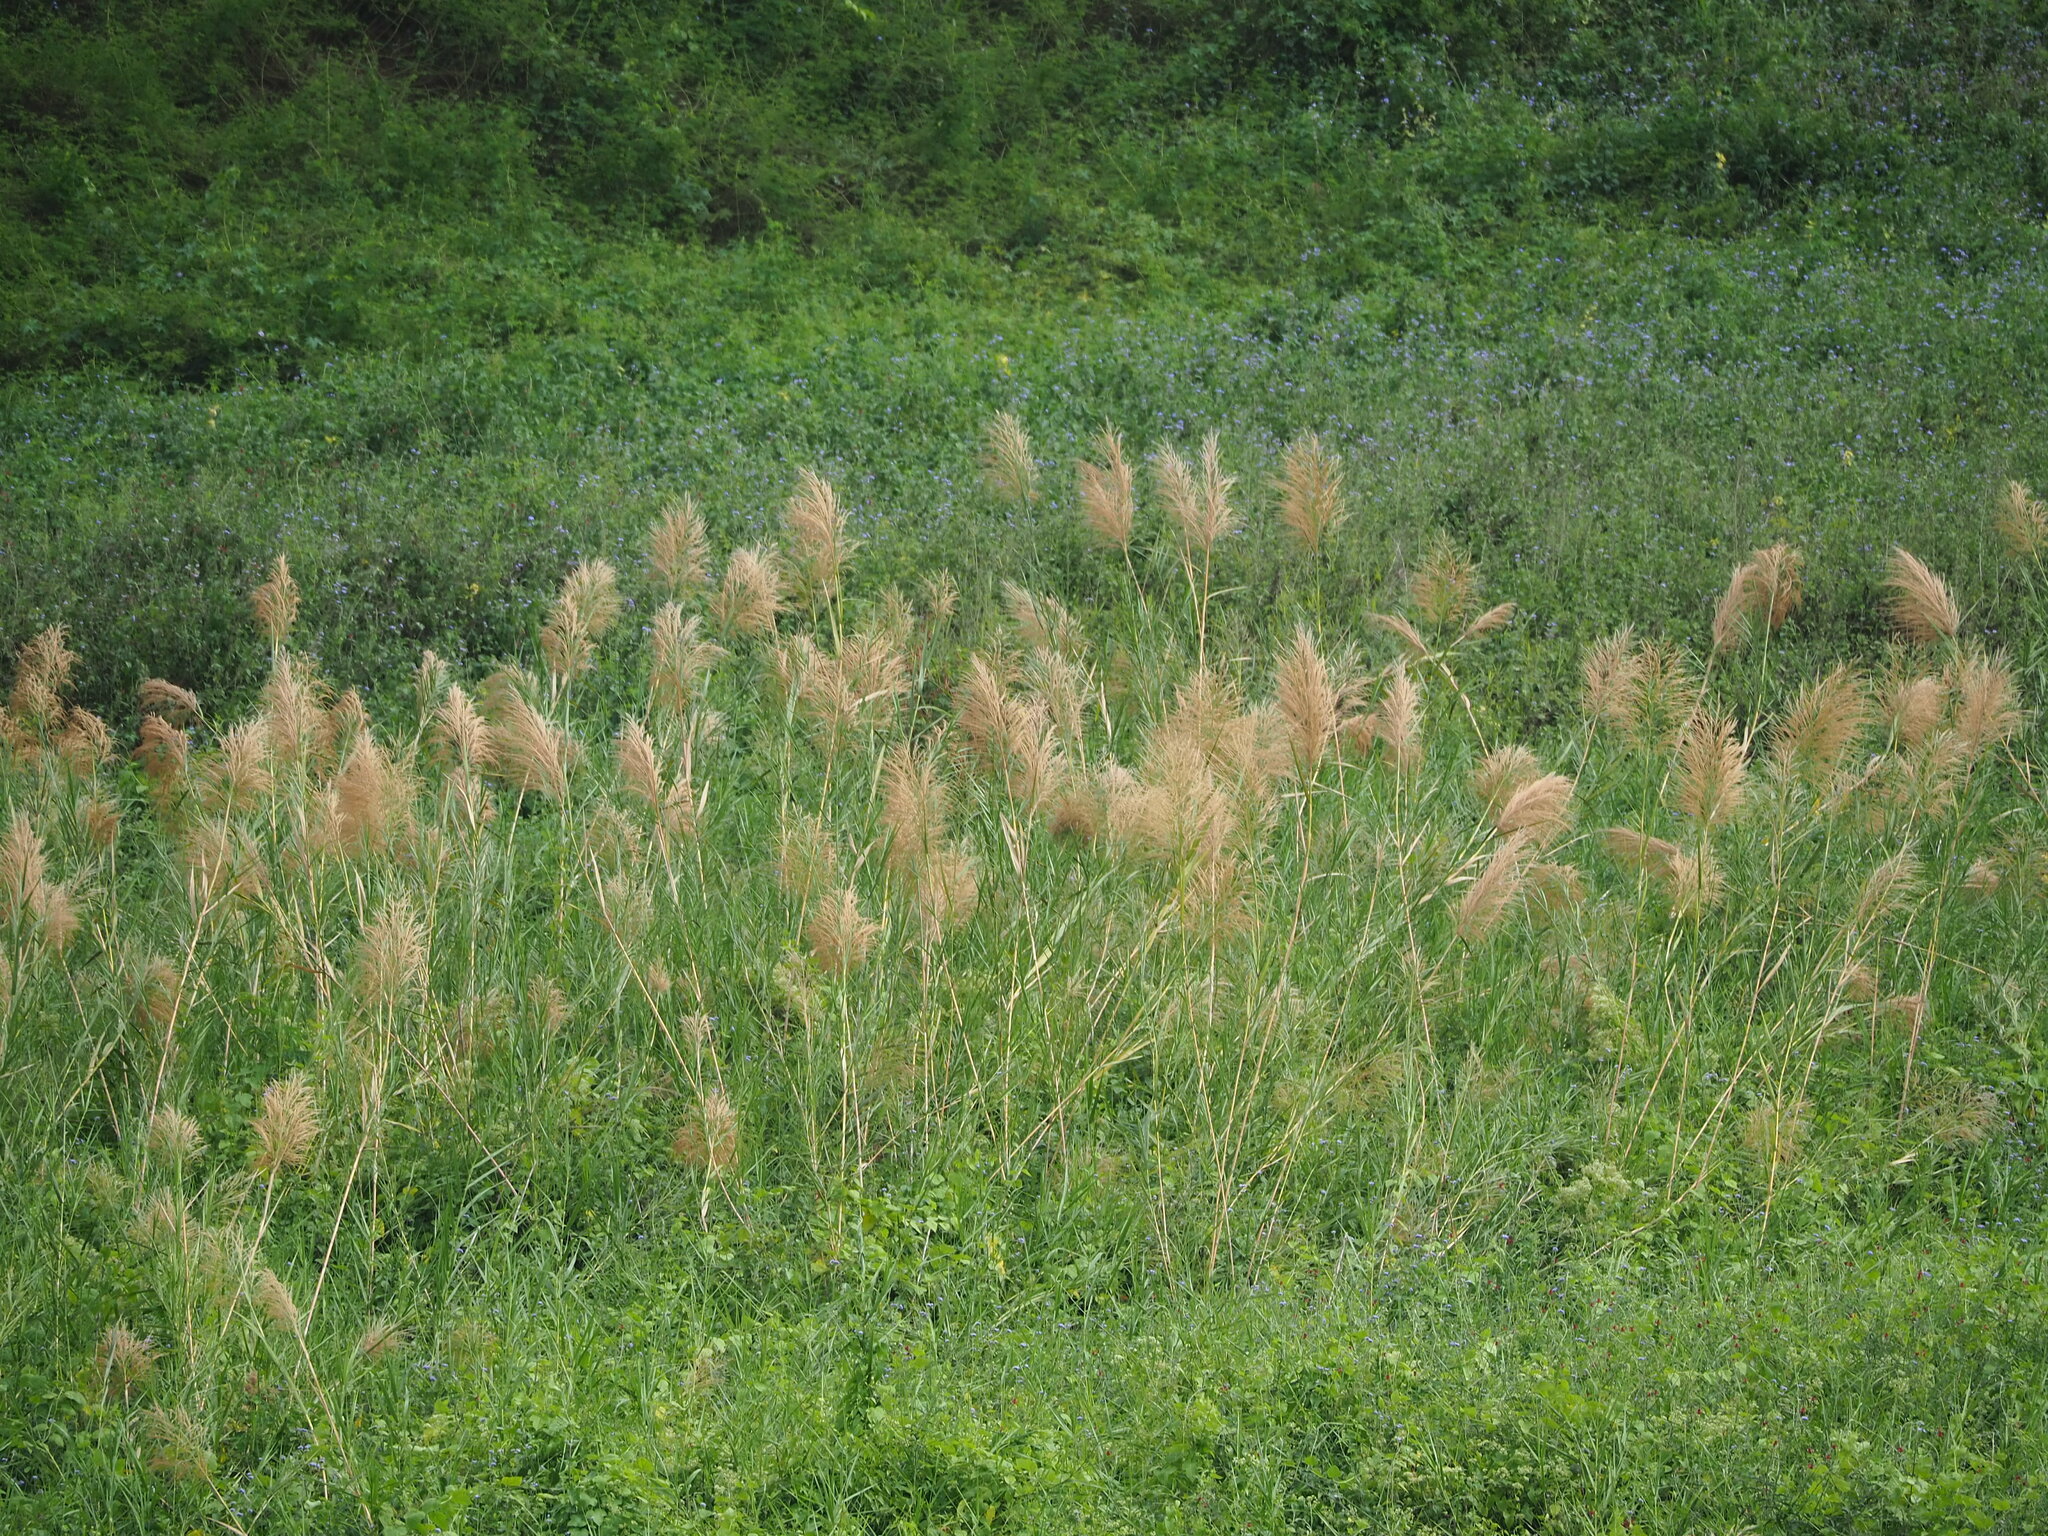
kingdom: Plantae
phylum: Tracheophyta
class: Liliopsida
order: Poales
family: Poaceae
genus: Phragmites
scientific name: Phragmites karka
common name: Tropical reed
